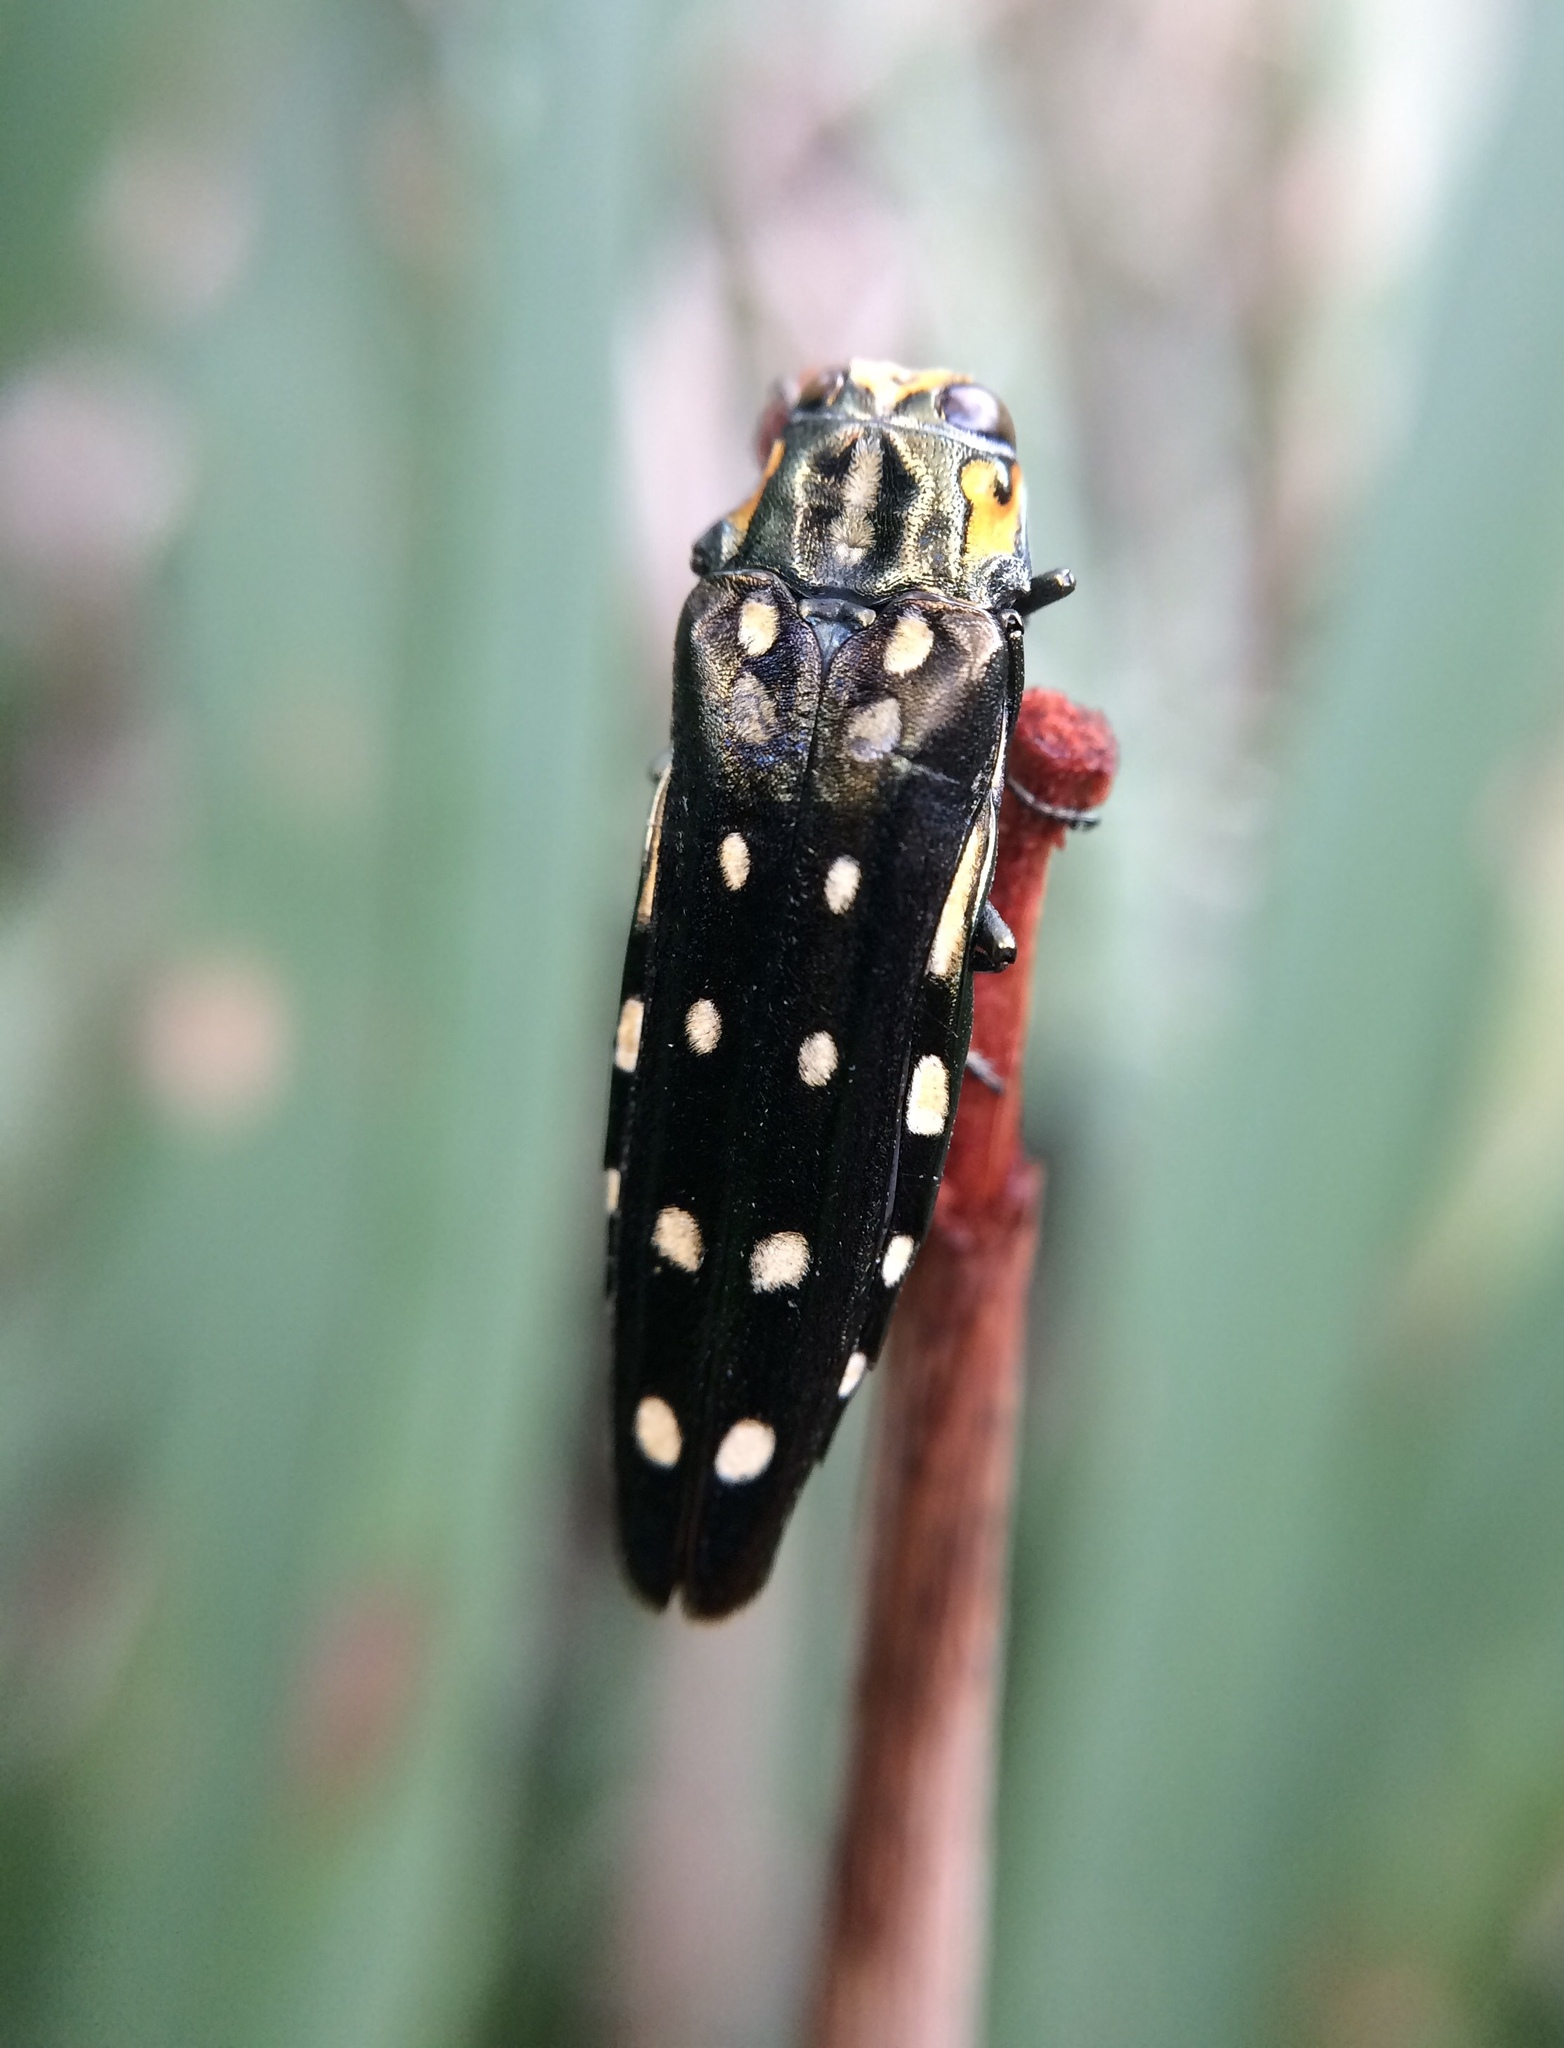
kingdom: Animalia
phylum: Arthropoda
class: Insecta
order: Coleoptera
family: Buprestidae
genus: Agrilus
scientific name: Agrilus grandis
